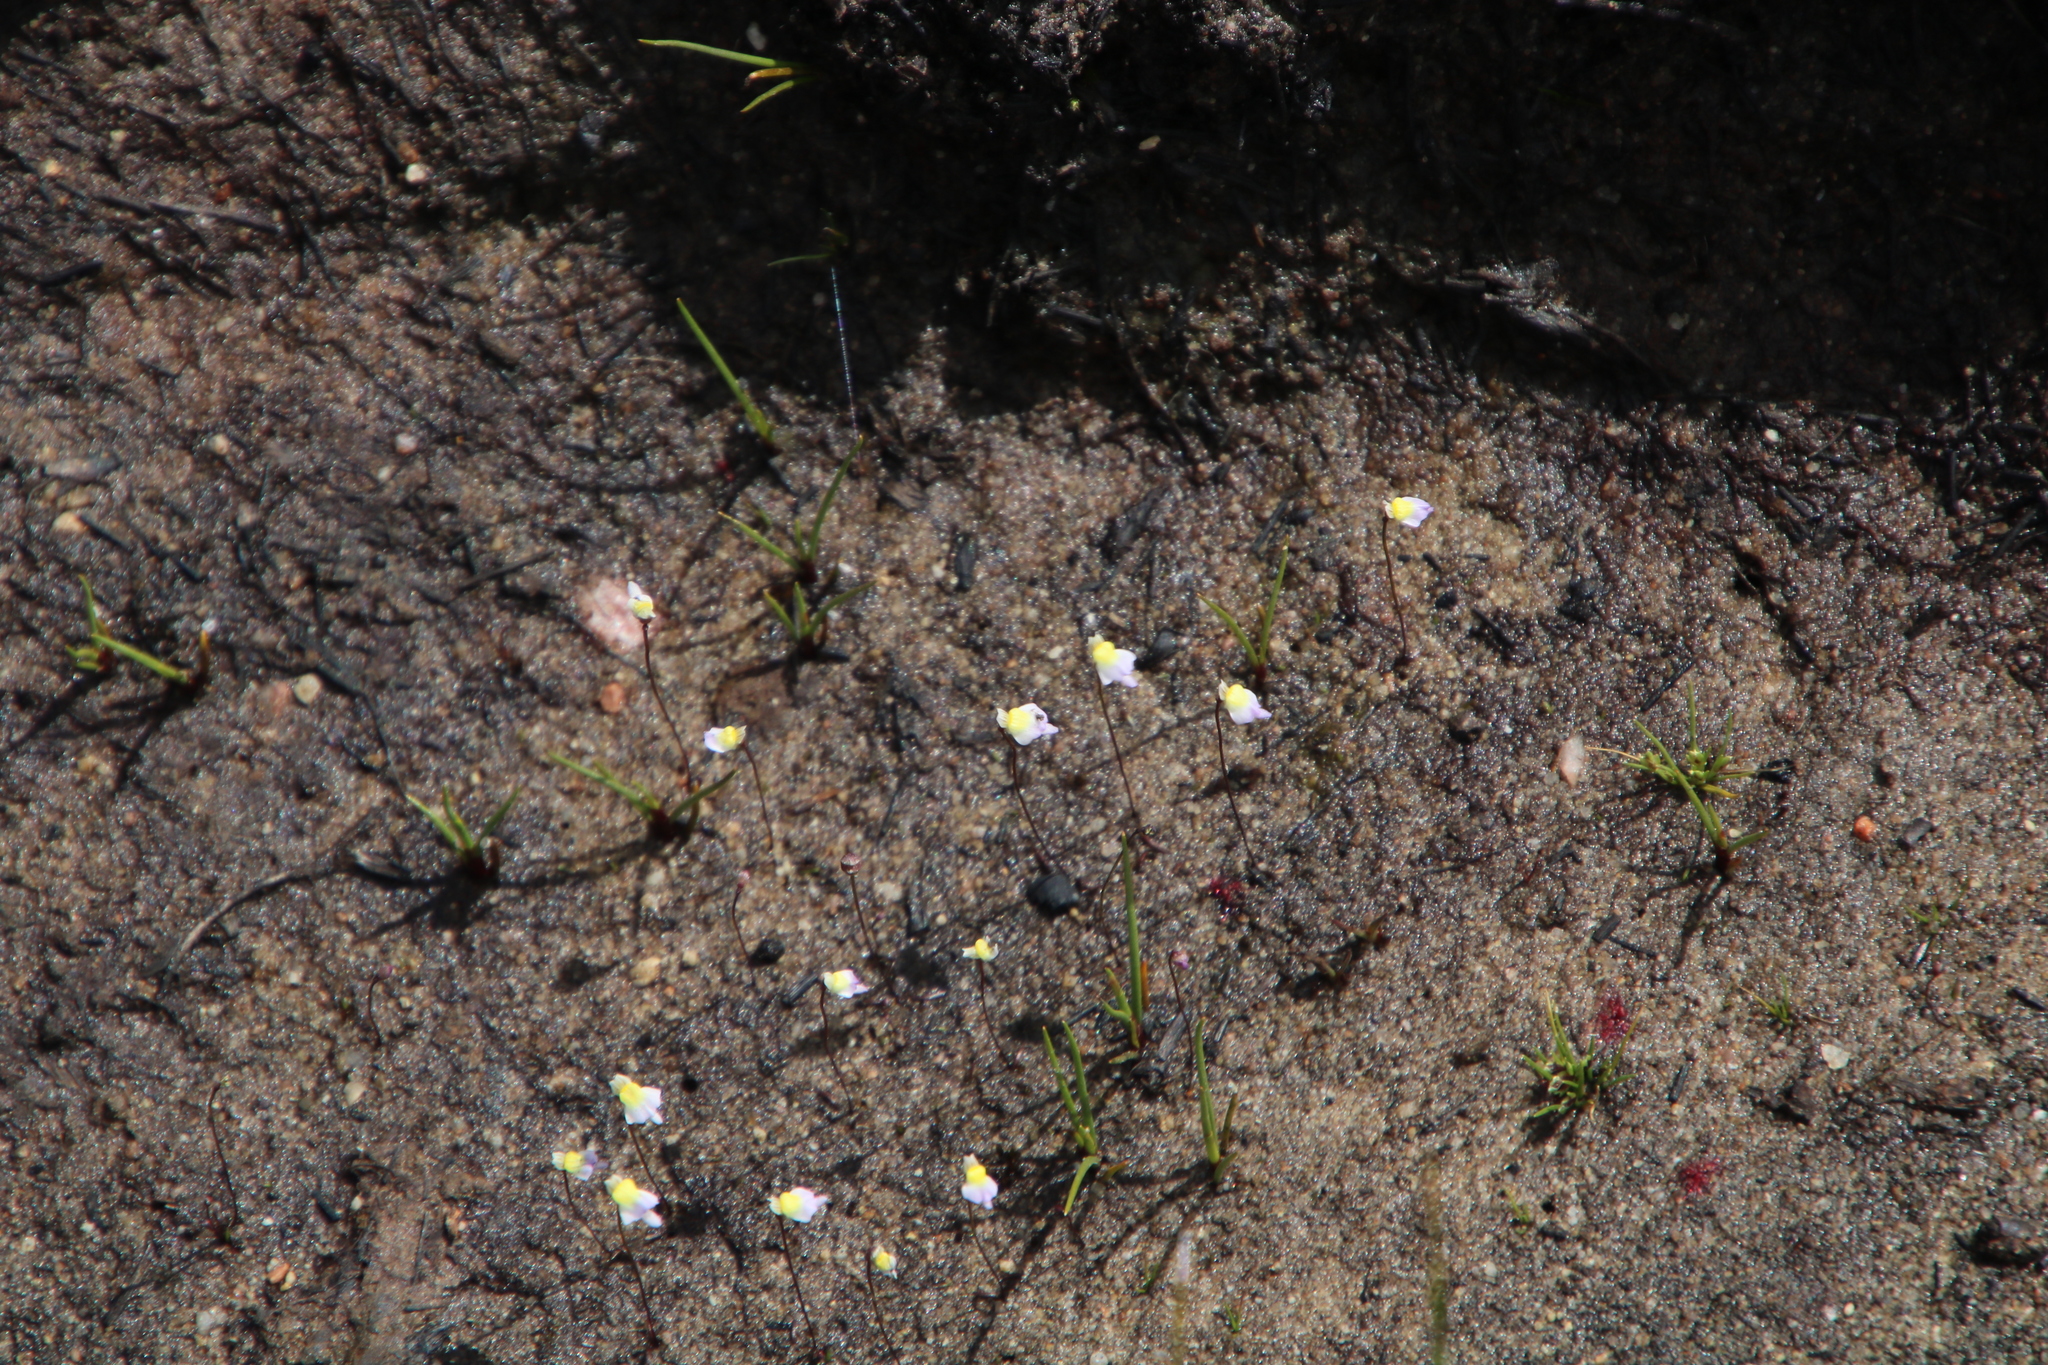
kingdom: Plantae
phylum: Tracheophyta
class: Magnoliopsida
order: Lamiales
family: Lentibulariaceae
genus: Utricularia
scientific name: Utricularia bisquamata
